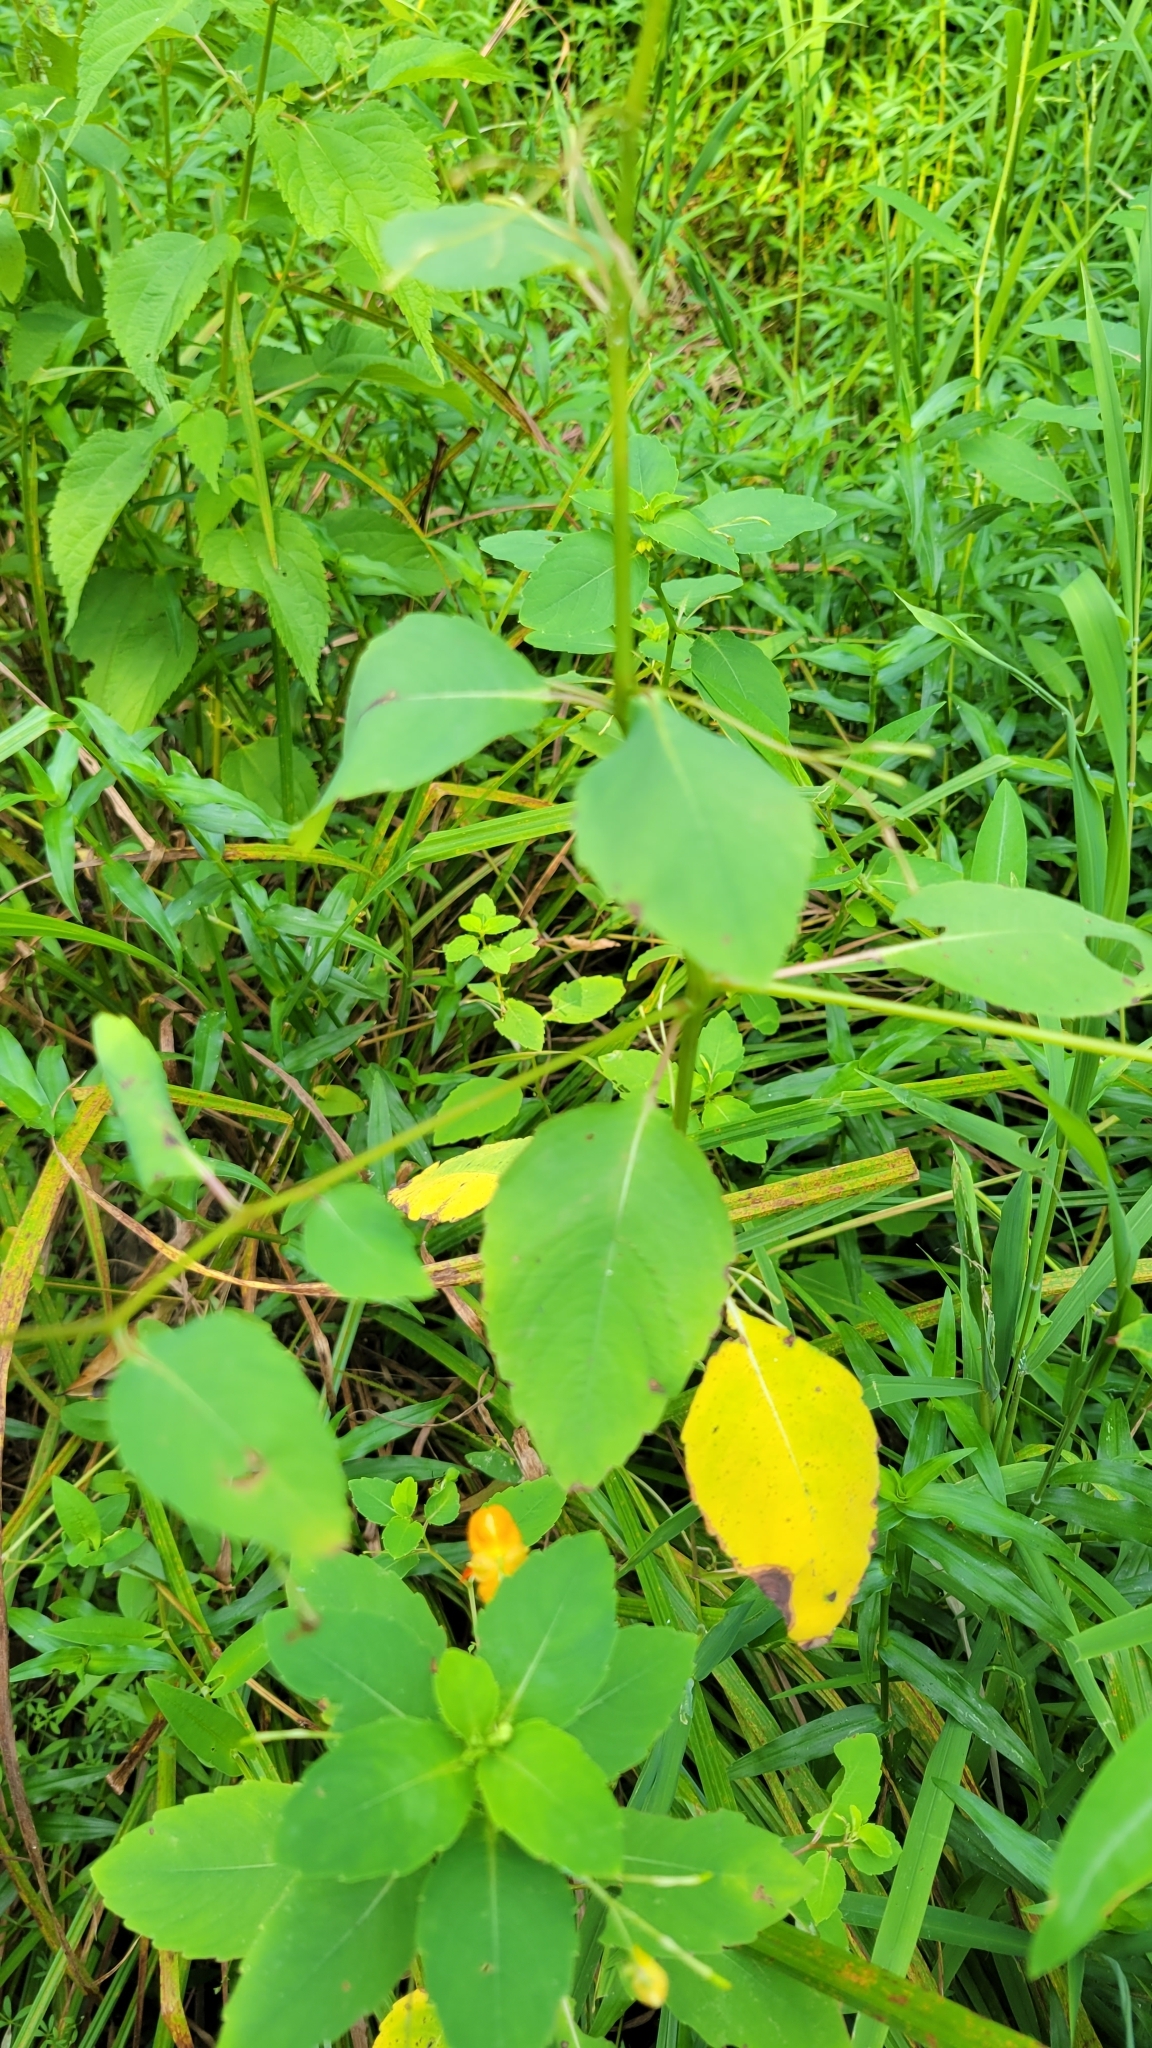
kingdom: Plantae
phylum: Tracheophyta
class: Magnoliopsida
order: Ericales
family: Balsaminaceae
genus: Impatiens
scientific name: Impatiens capensis
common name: Orange balsam
